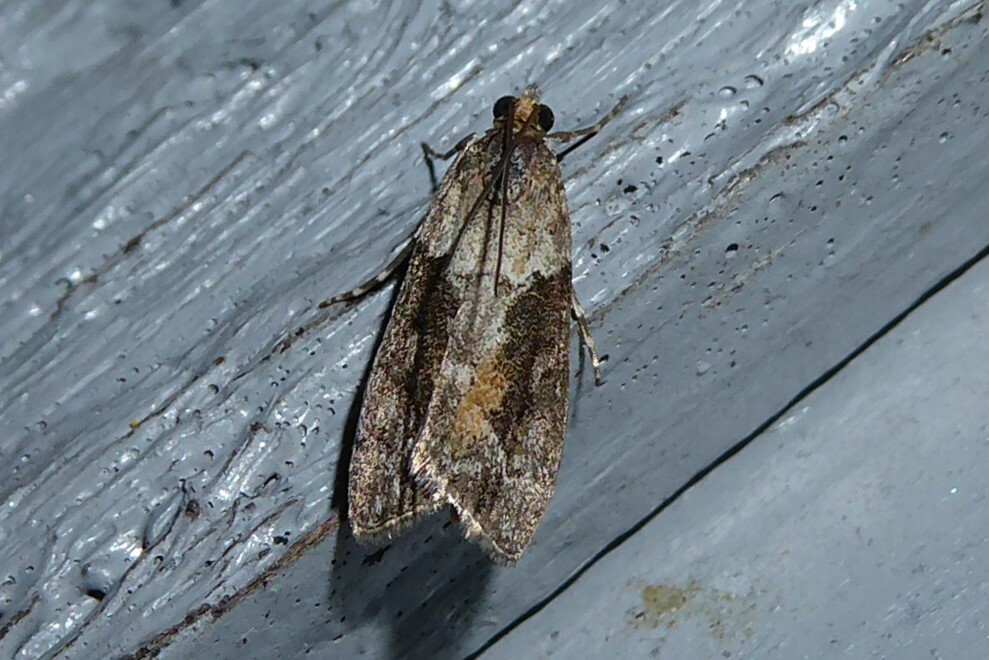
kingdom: Animalia
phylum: Arthropoda
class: Insecta
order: Lepidoptera
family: Crambidae
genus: Eudonia
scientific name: Eudonia submarginalis
